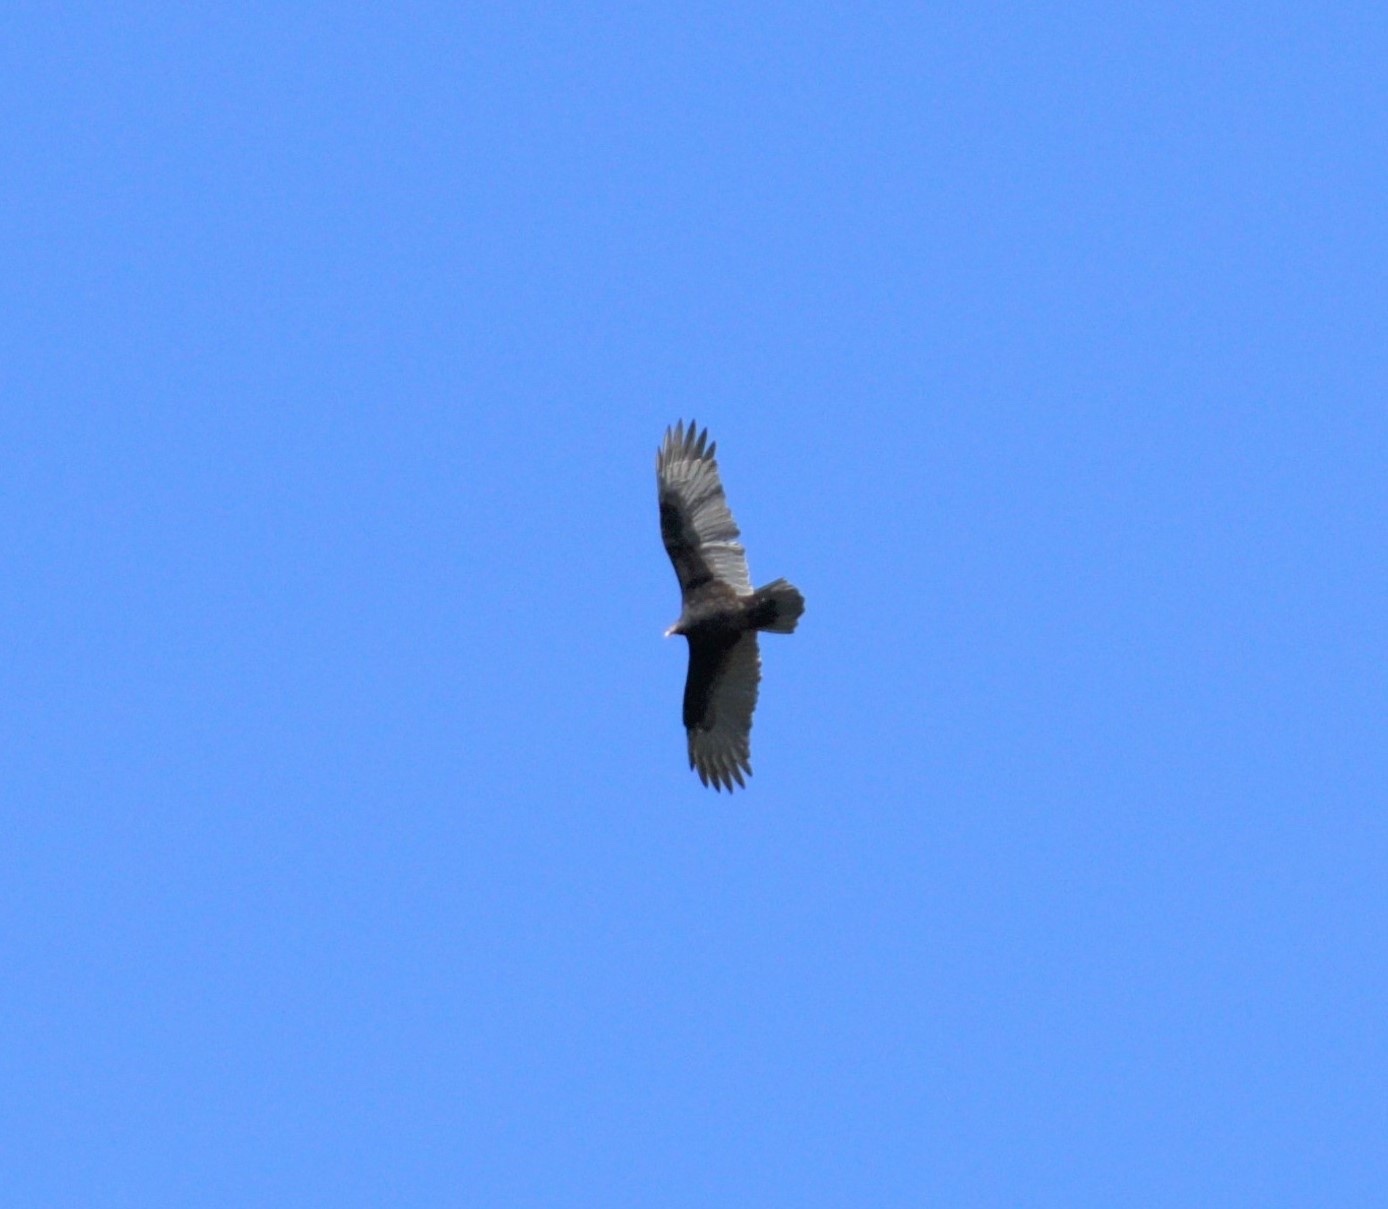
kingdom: Animalia
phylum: Chordata
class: Aves
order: Accipitriformes
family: Cathartidae
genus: Cathartes
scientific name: Cathartes aura
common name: Turkey vulture
